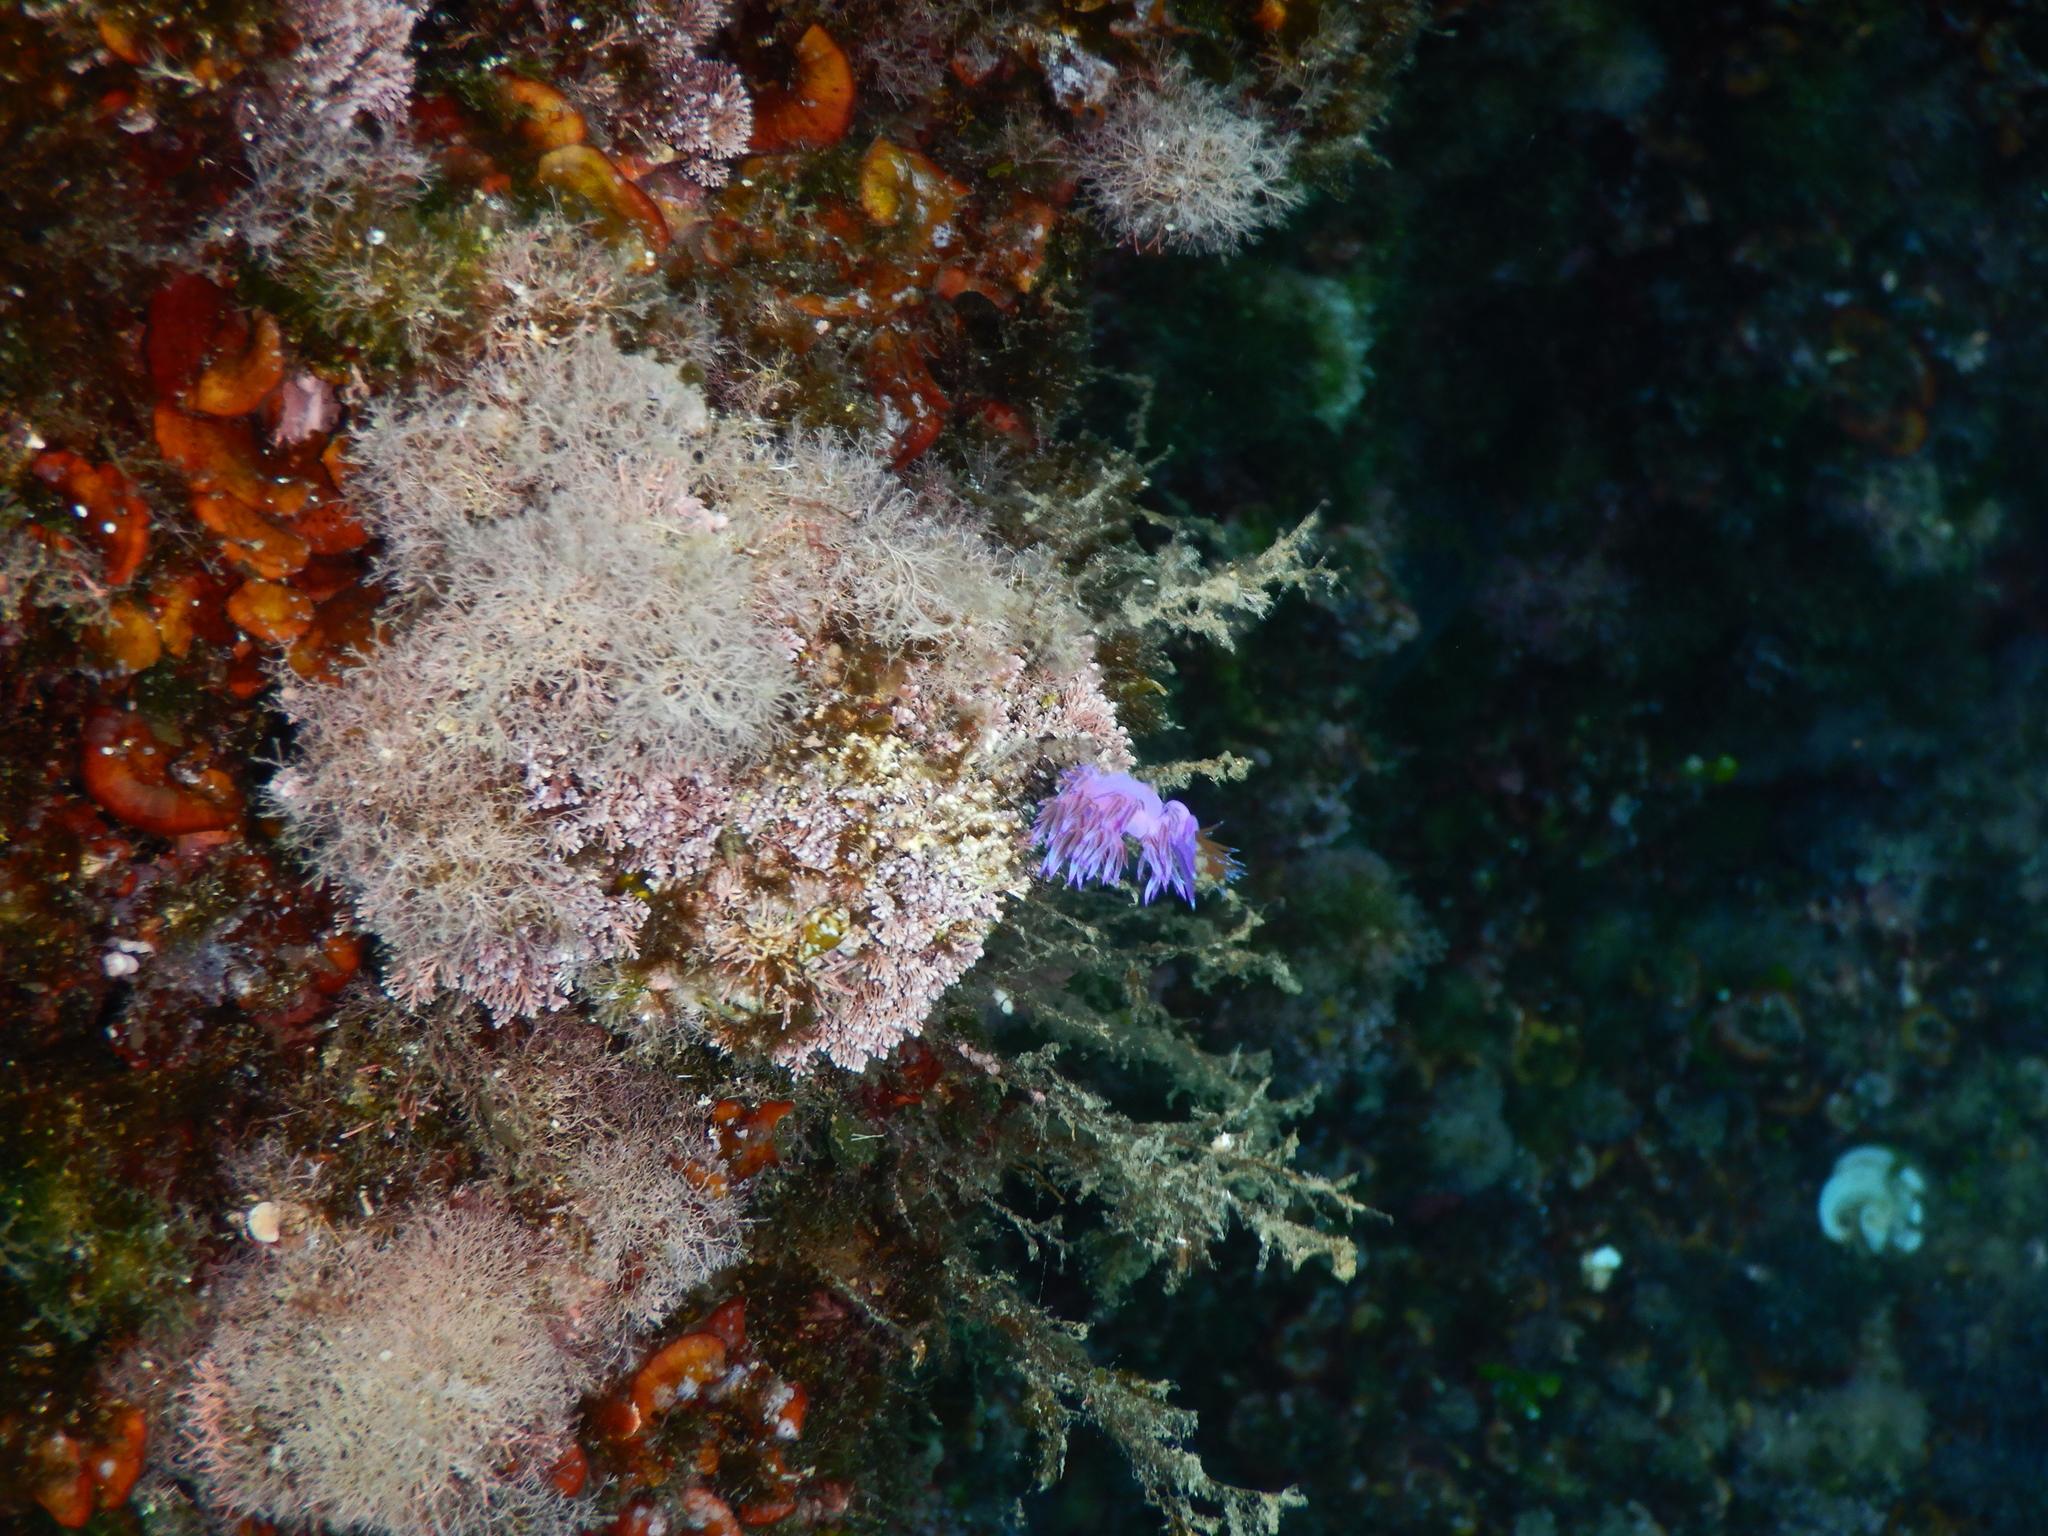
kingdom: Animalia
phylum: Mollusca
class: Gastropoda
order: Nudibranchia
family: Flabellinidae
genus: Flabellina
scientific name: Flabellina affinis
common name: Mediterranean violet aeolid
